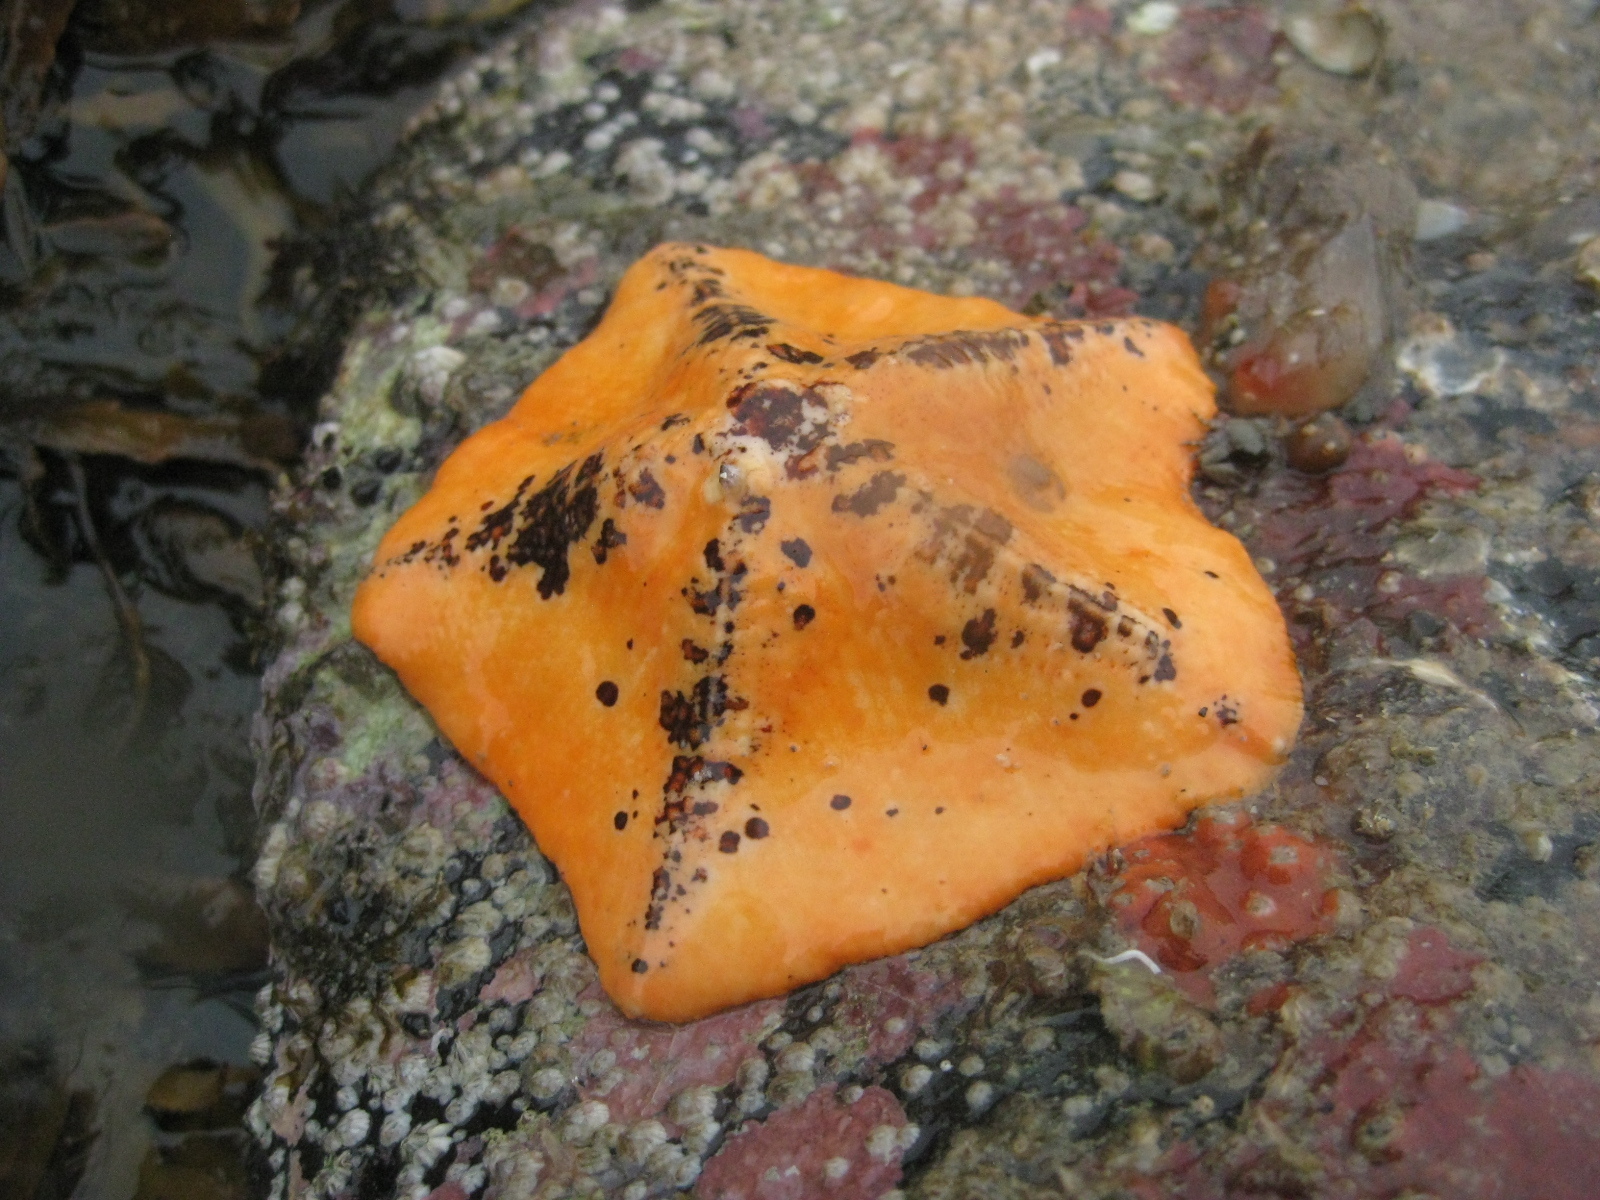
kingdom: Animalia
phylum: Echinodermata
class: Asteroidea
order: Valvatida
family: Asterinidae
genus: Stegnaster
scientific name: Stegnaster inflatus
